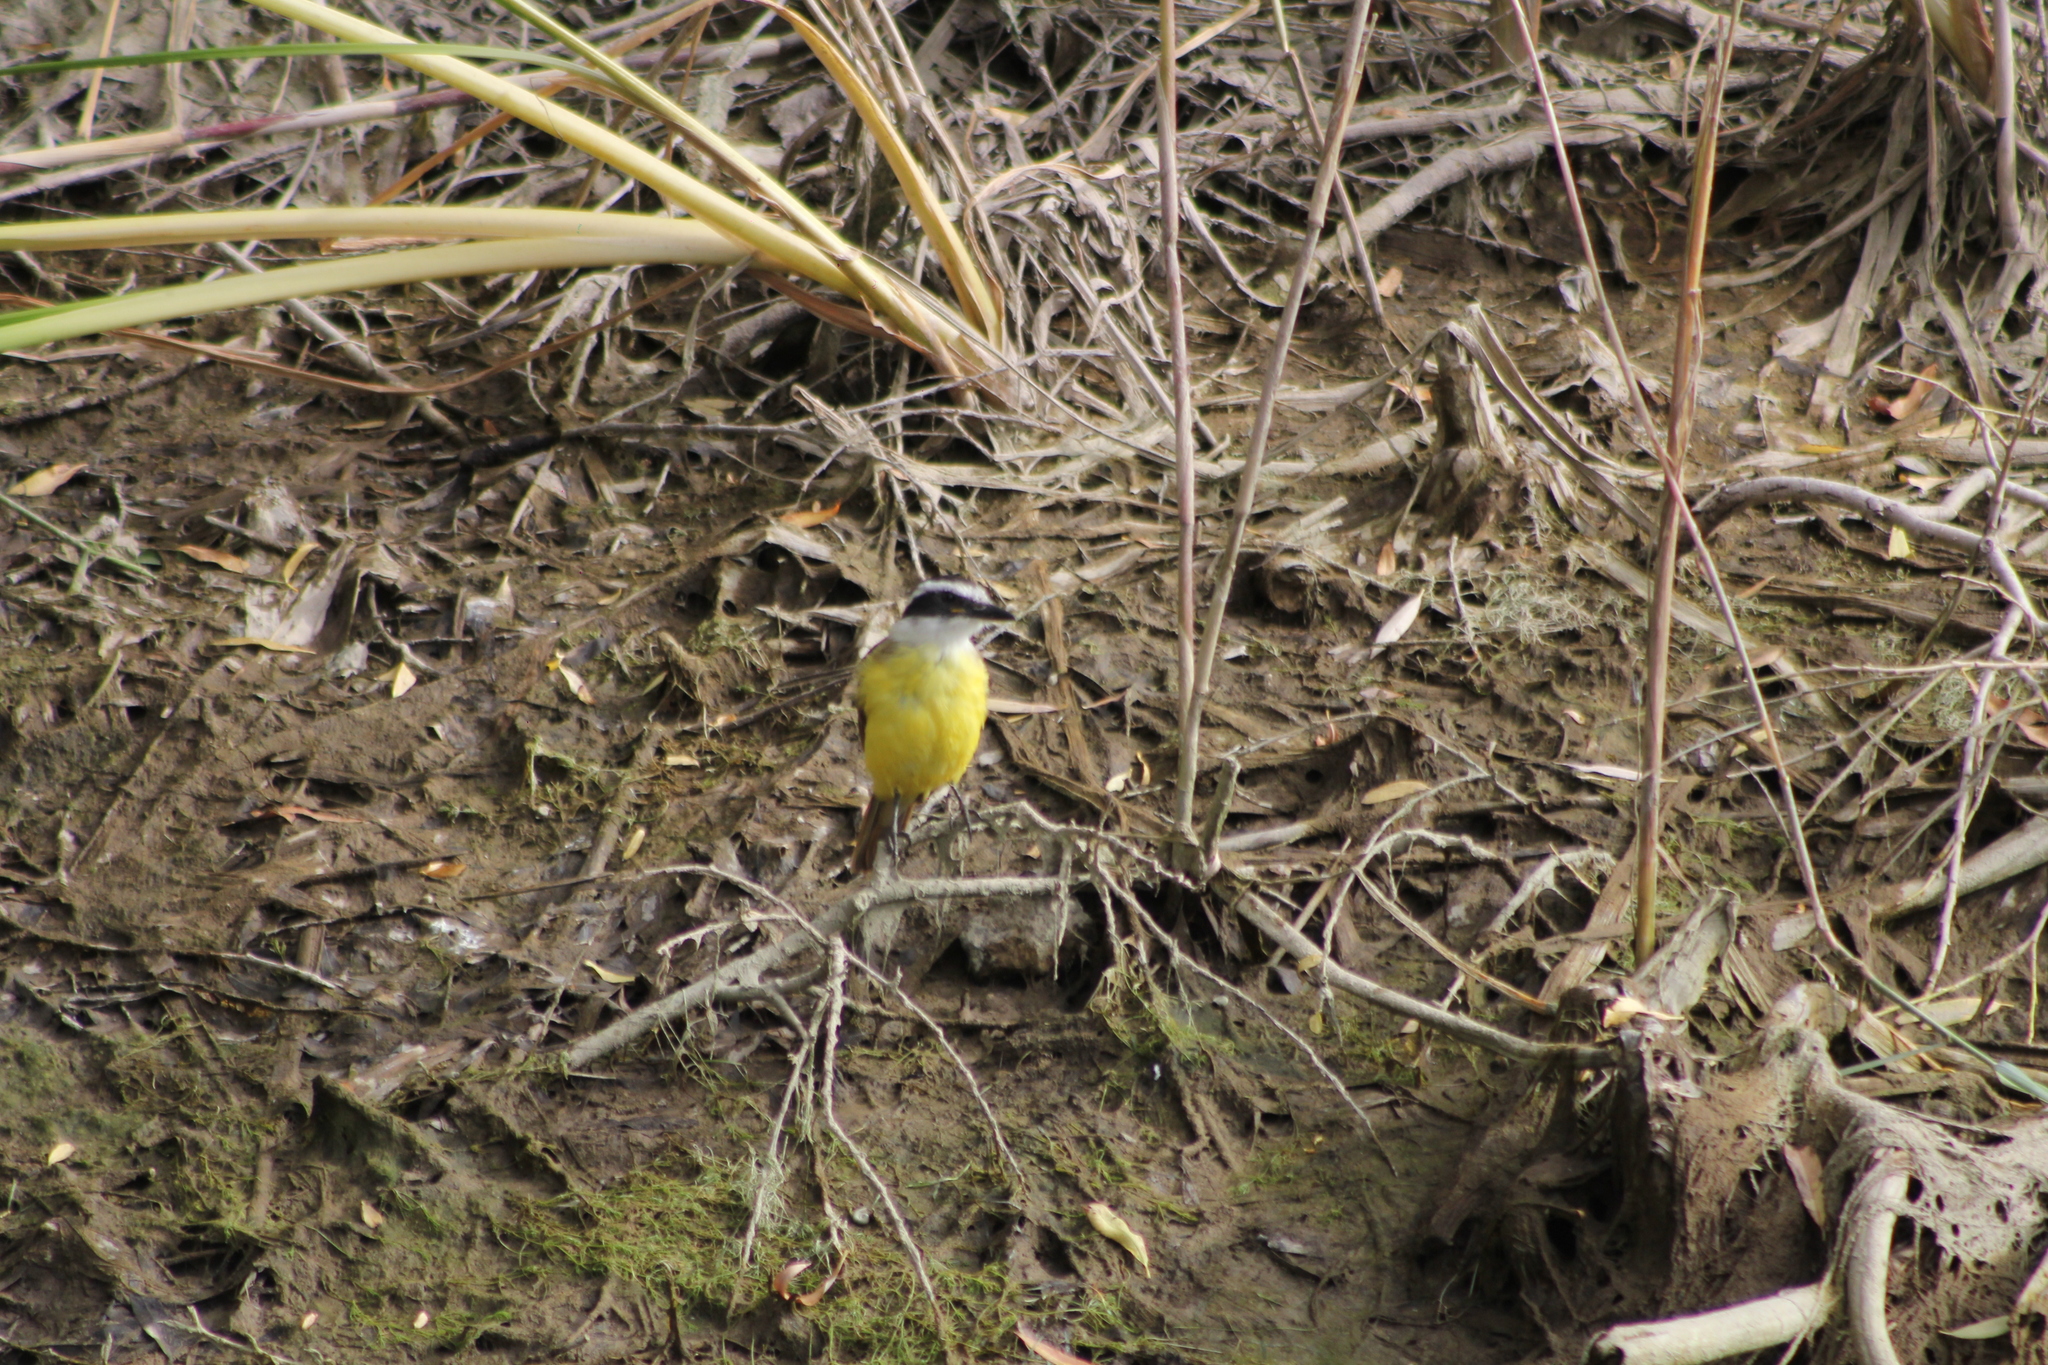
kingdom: Animalia
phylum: Chordata
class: Aves
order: Passeriformes
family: Tyrannidae
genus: Pitangus
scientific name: Pitangus sulphuratus
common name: Great kiskadee
